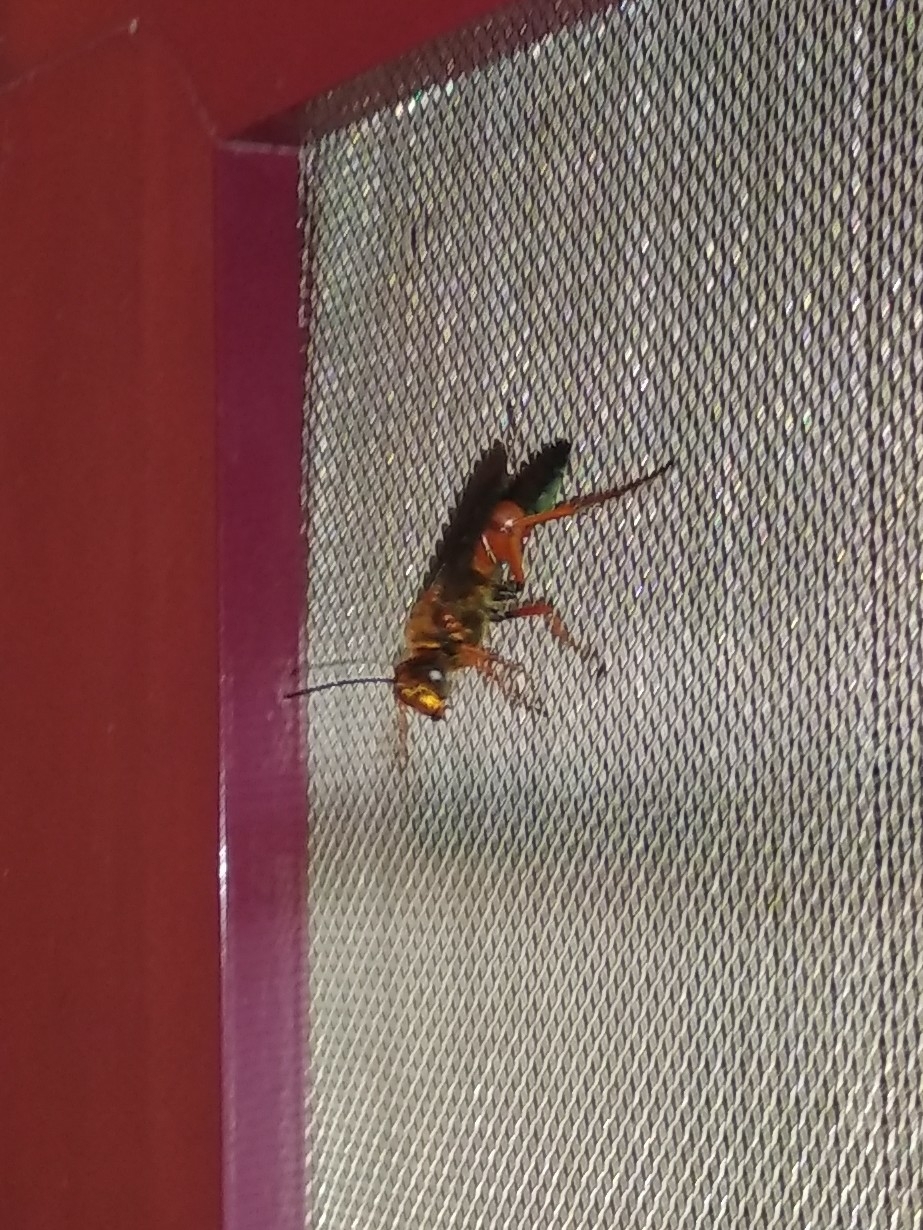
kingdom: Animalia
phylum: Arthropoda
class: Insecta
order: Hymenoptera
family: Sphecidae
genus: Sphex
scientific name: Sphex sericeus
